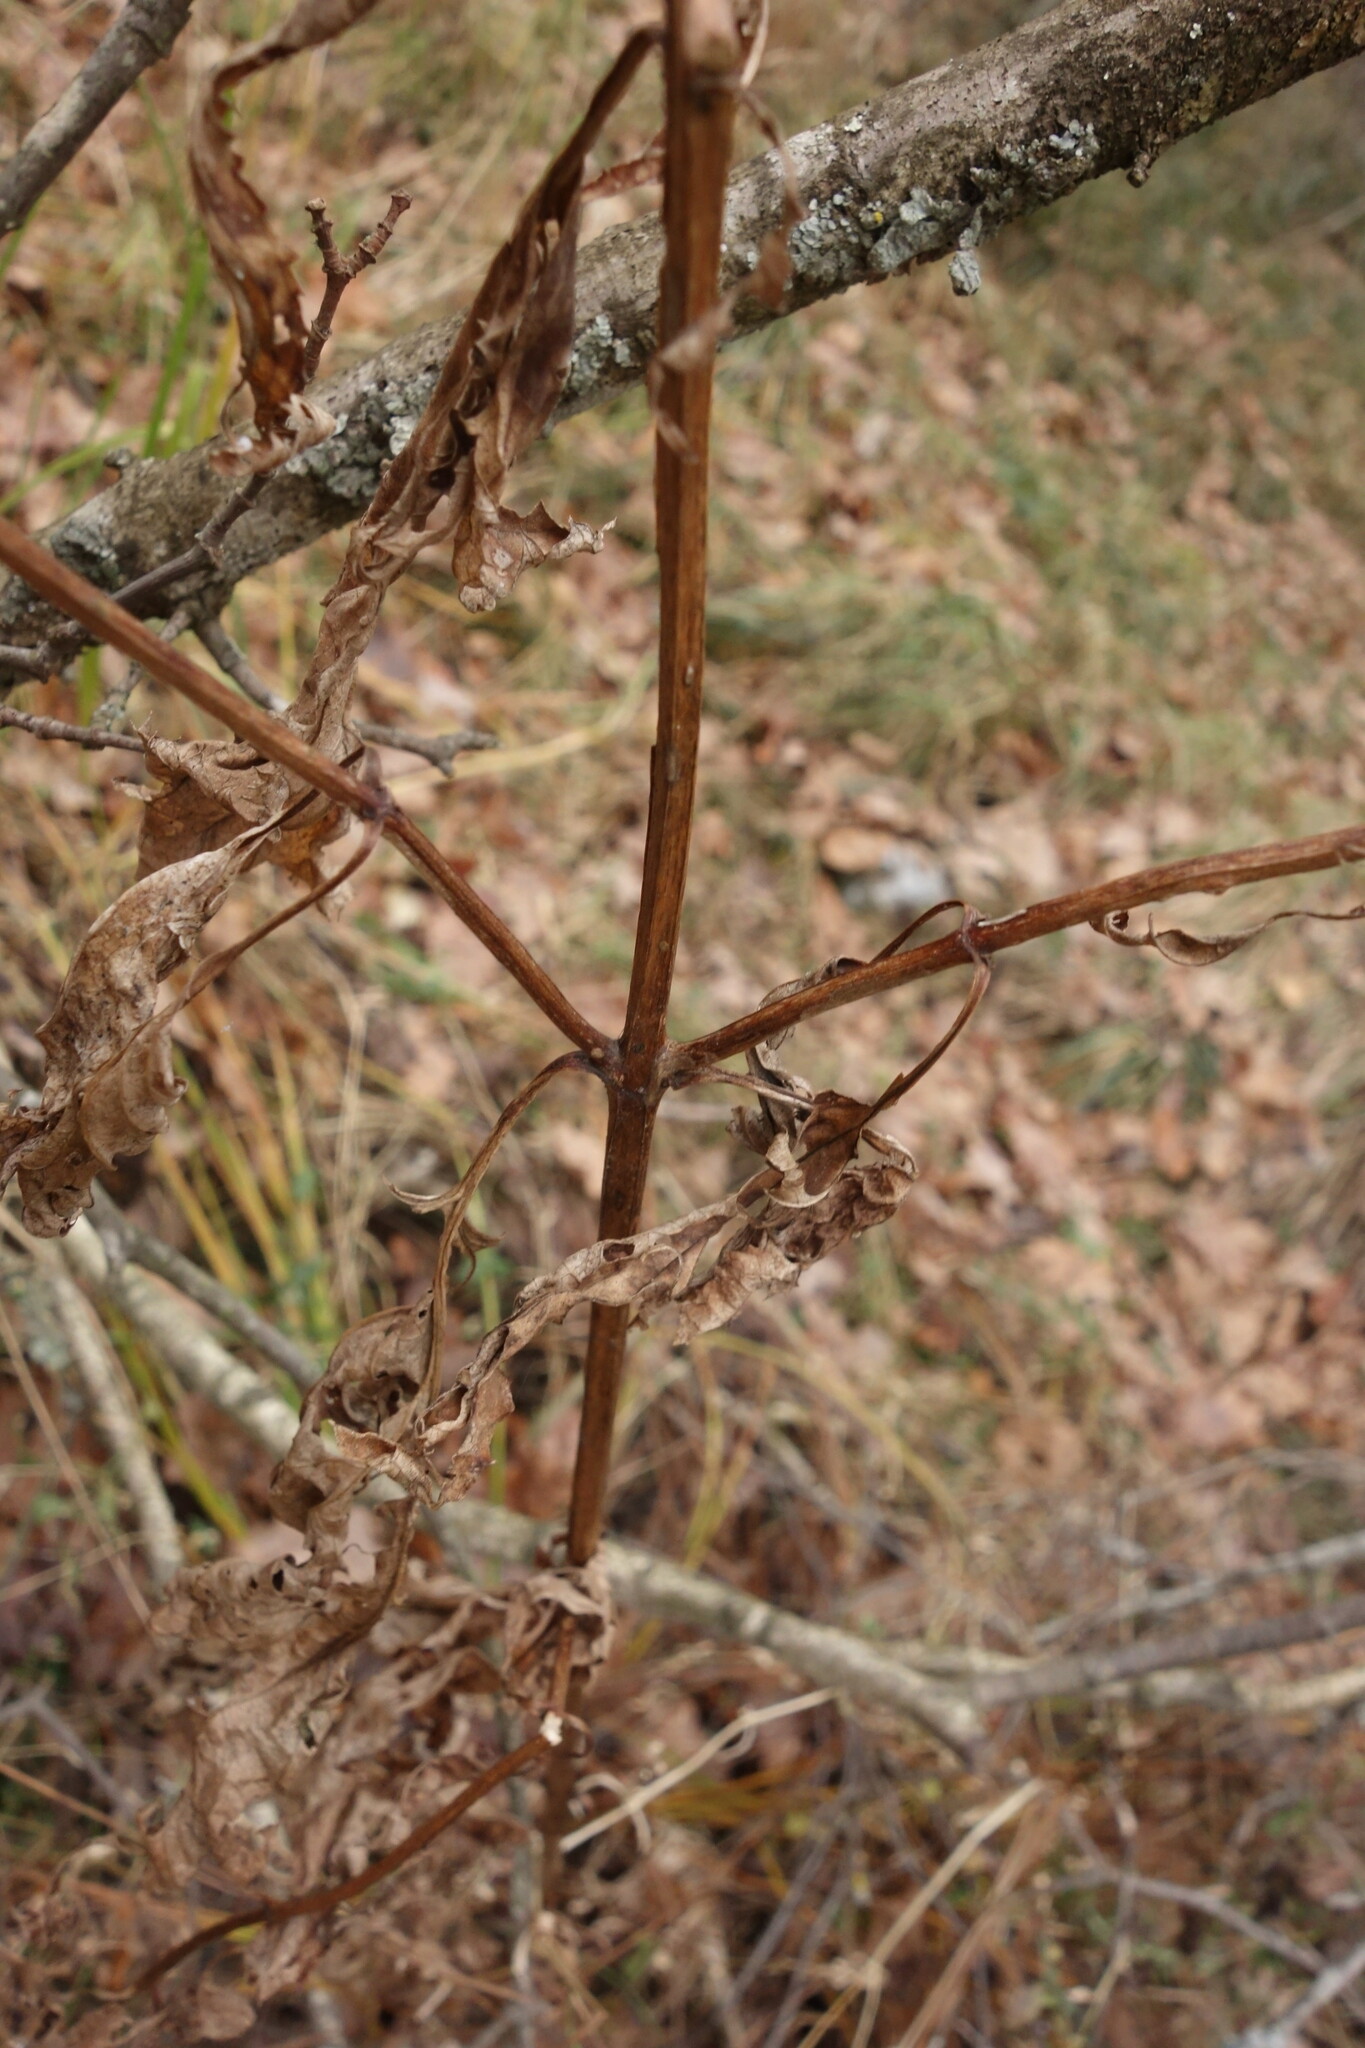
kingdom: Plantae
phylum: Tracheophyta
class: Magnoliopsida
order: Lamiales
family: Scrophulariaceae
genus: Scrophularia
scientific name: Scrophularia nodosa
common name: Common figwort
